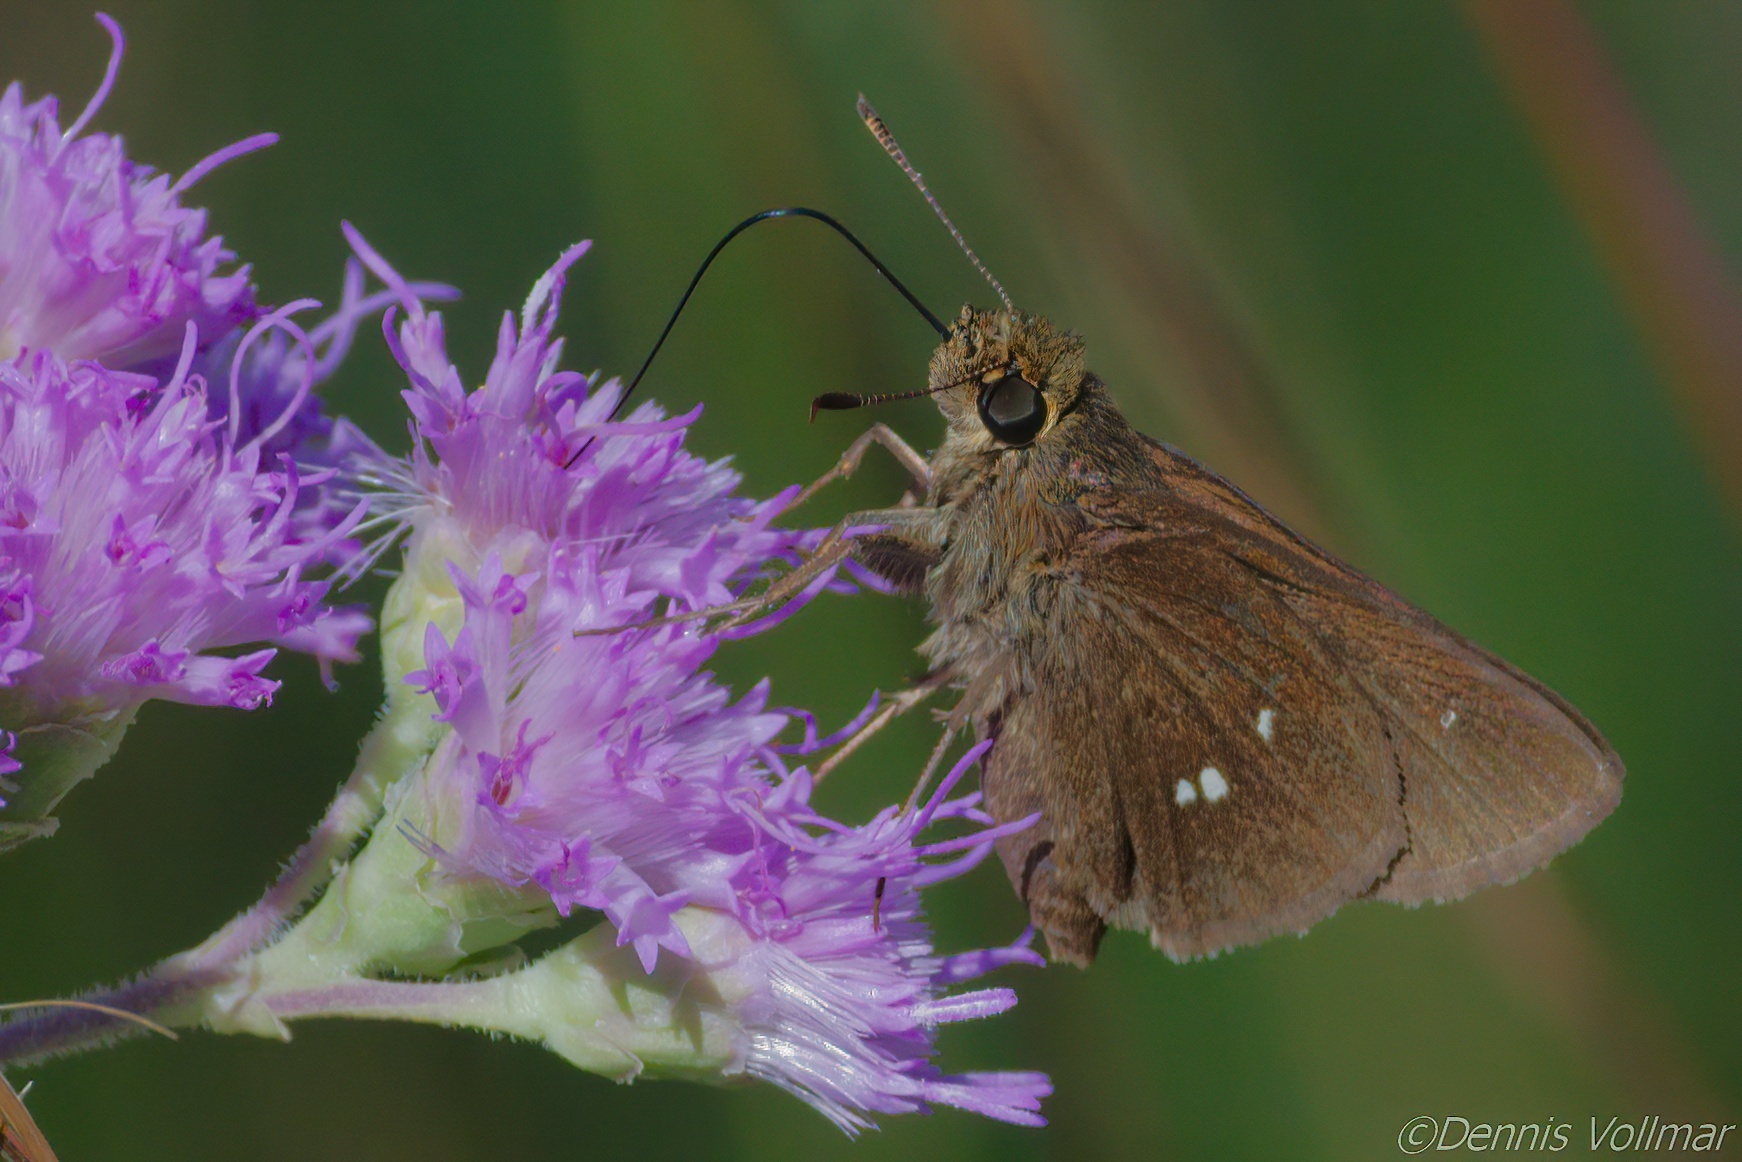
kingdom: Animalia
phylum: Arthropoda
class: Insecta
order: Lepidoptera
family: Hesperiidae
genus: Oligoria
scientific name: Oligoria maculata
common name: Twin-spot skipper
